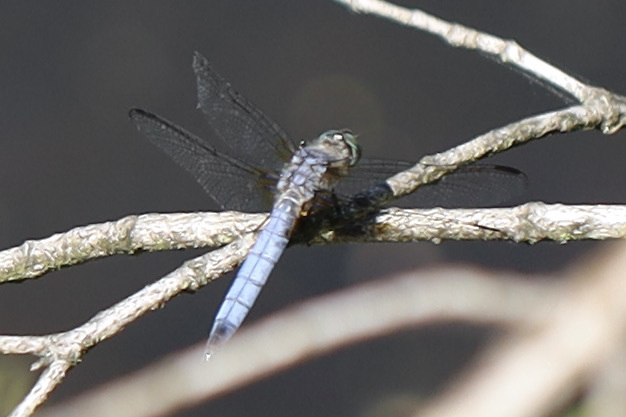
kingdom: Animalia
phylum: Arthropoda
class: Insecta
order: Odonata
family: Libellulidae
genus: Pachydiplax
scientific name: Pachydiplax longipennis
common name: Blue dasher
